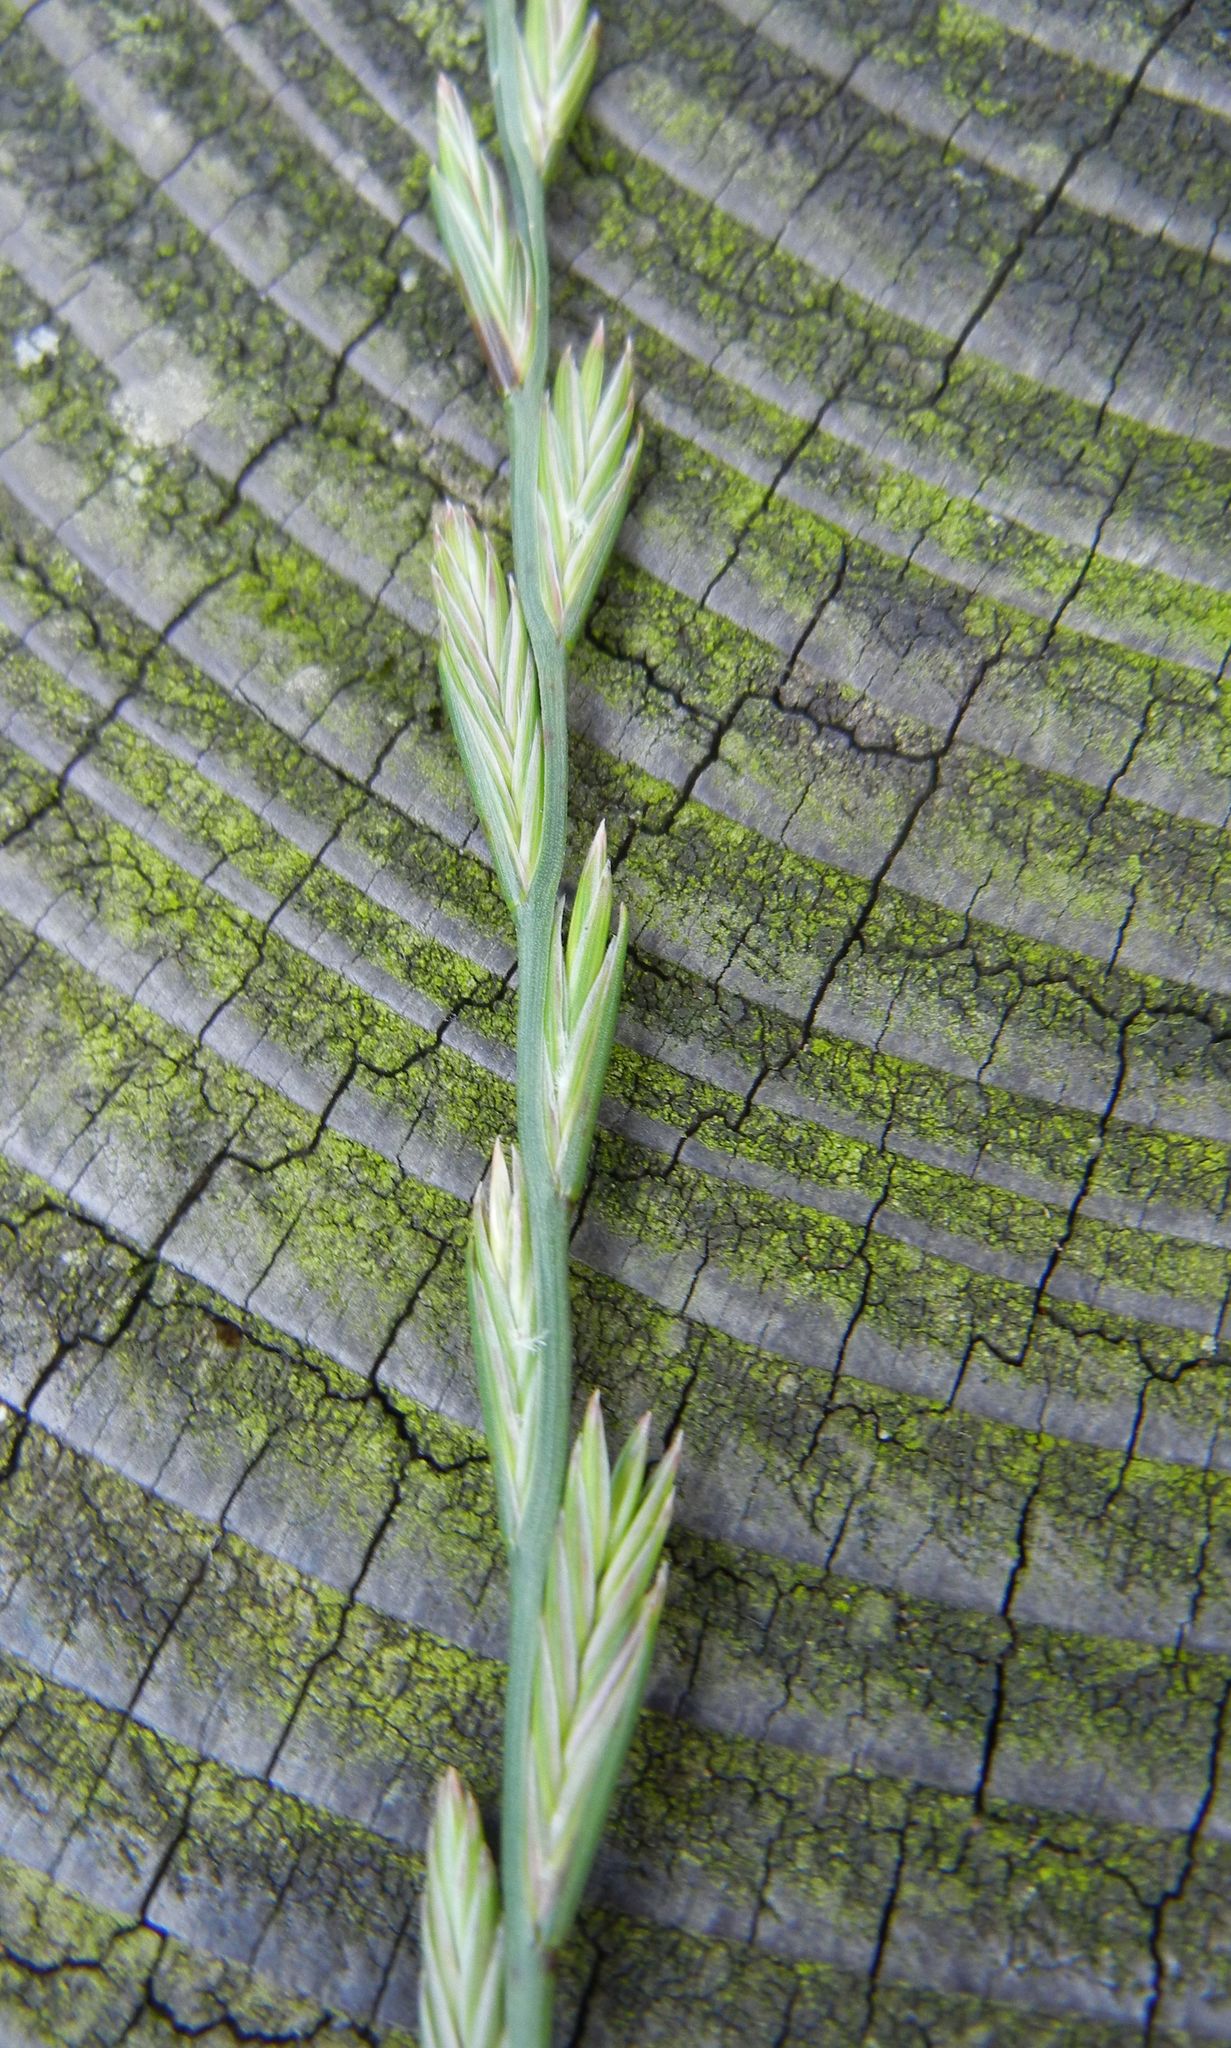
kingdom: Plantae
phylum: Tracheophyta
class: Liliopsida
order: Poales
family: Poaceae
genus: Lolium
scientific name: Lolium perenne
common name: Perennial ryegrass
